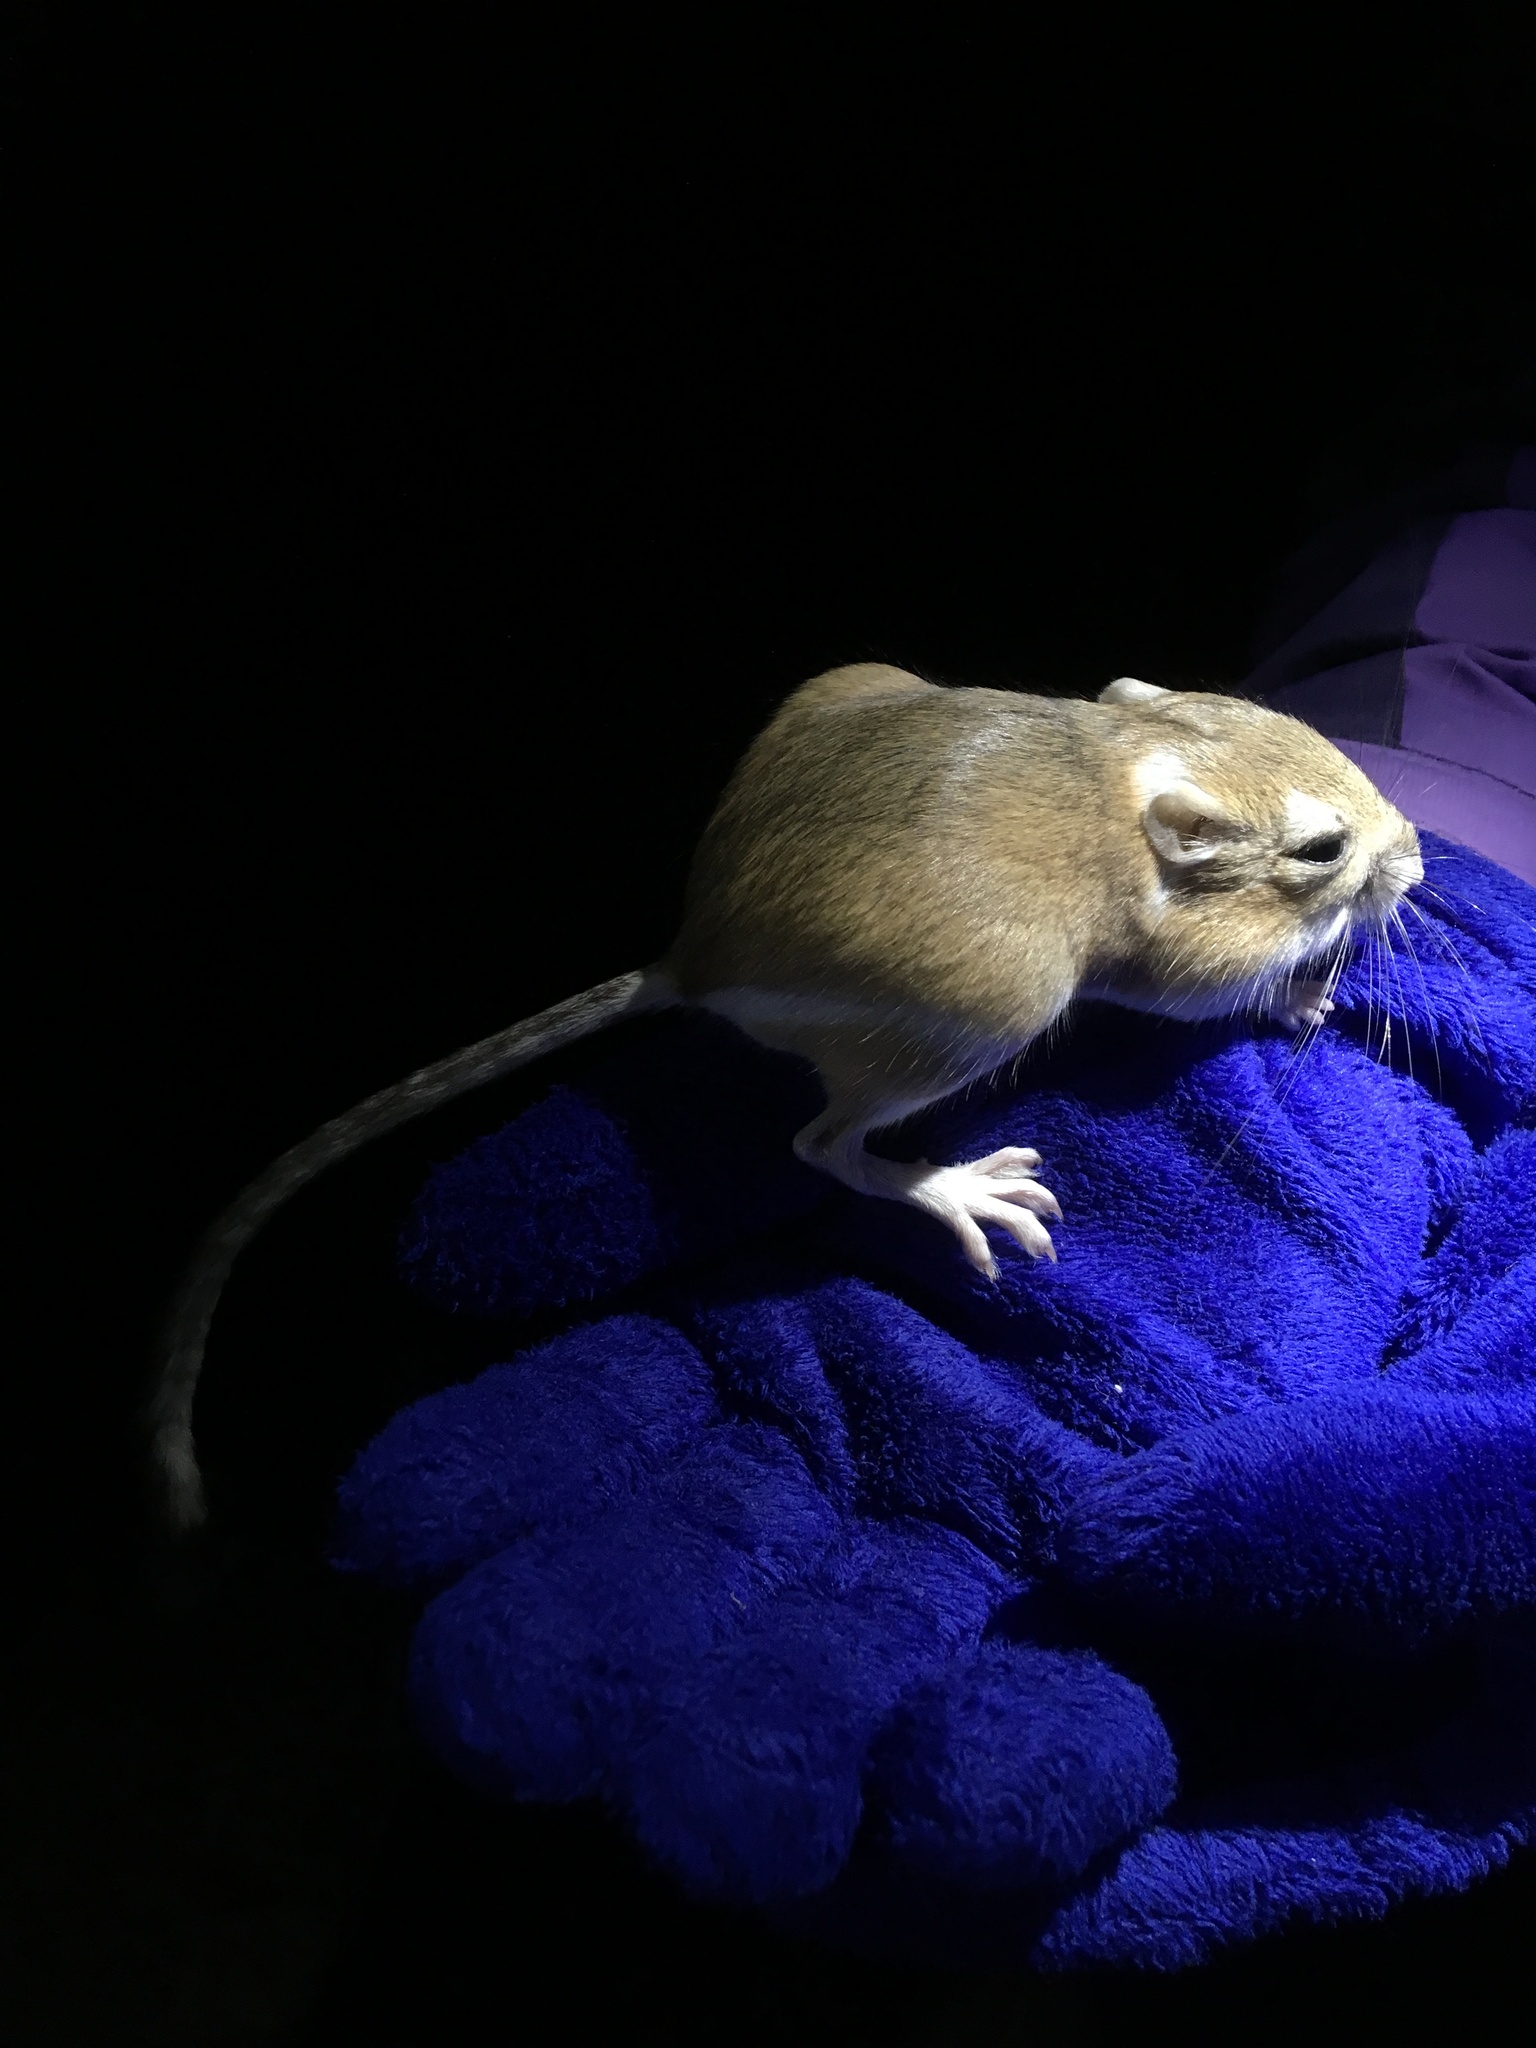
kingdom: Animalia
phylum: Chordata
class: Mammalia
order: Rodentia
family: Heteromyidae
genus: Dipodomys
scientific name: Dipodomys ordii
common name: Ord's kangaroo rat
